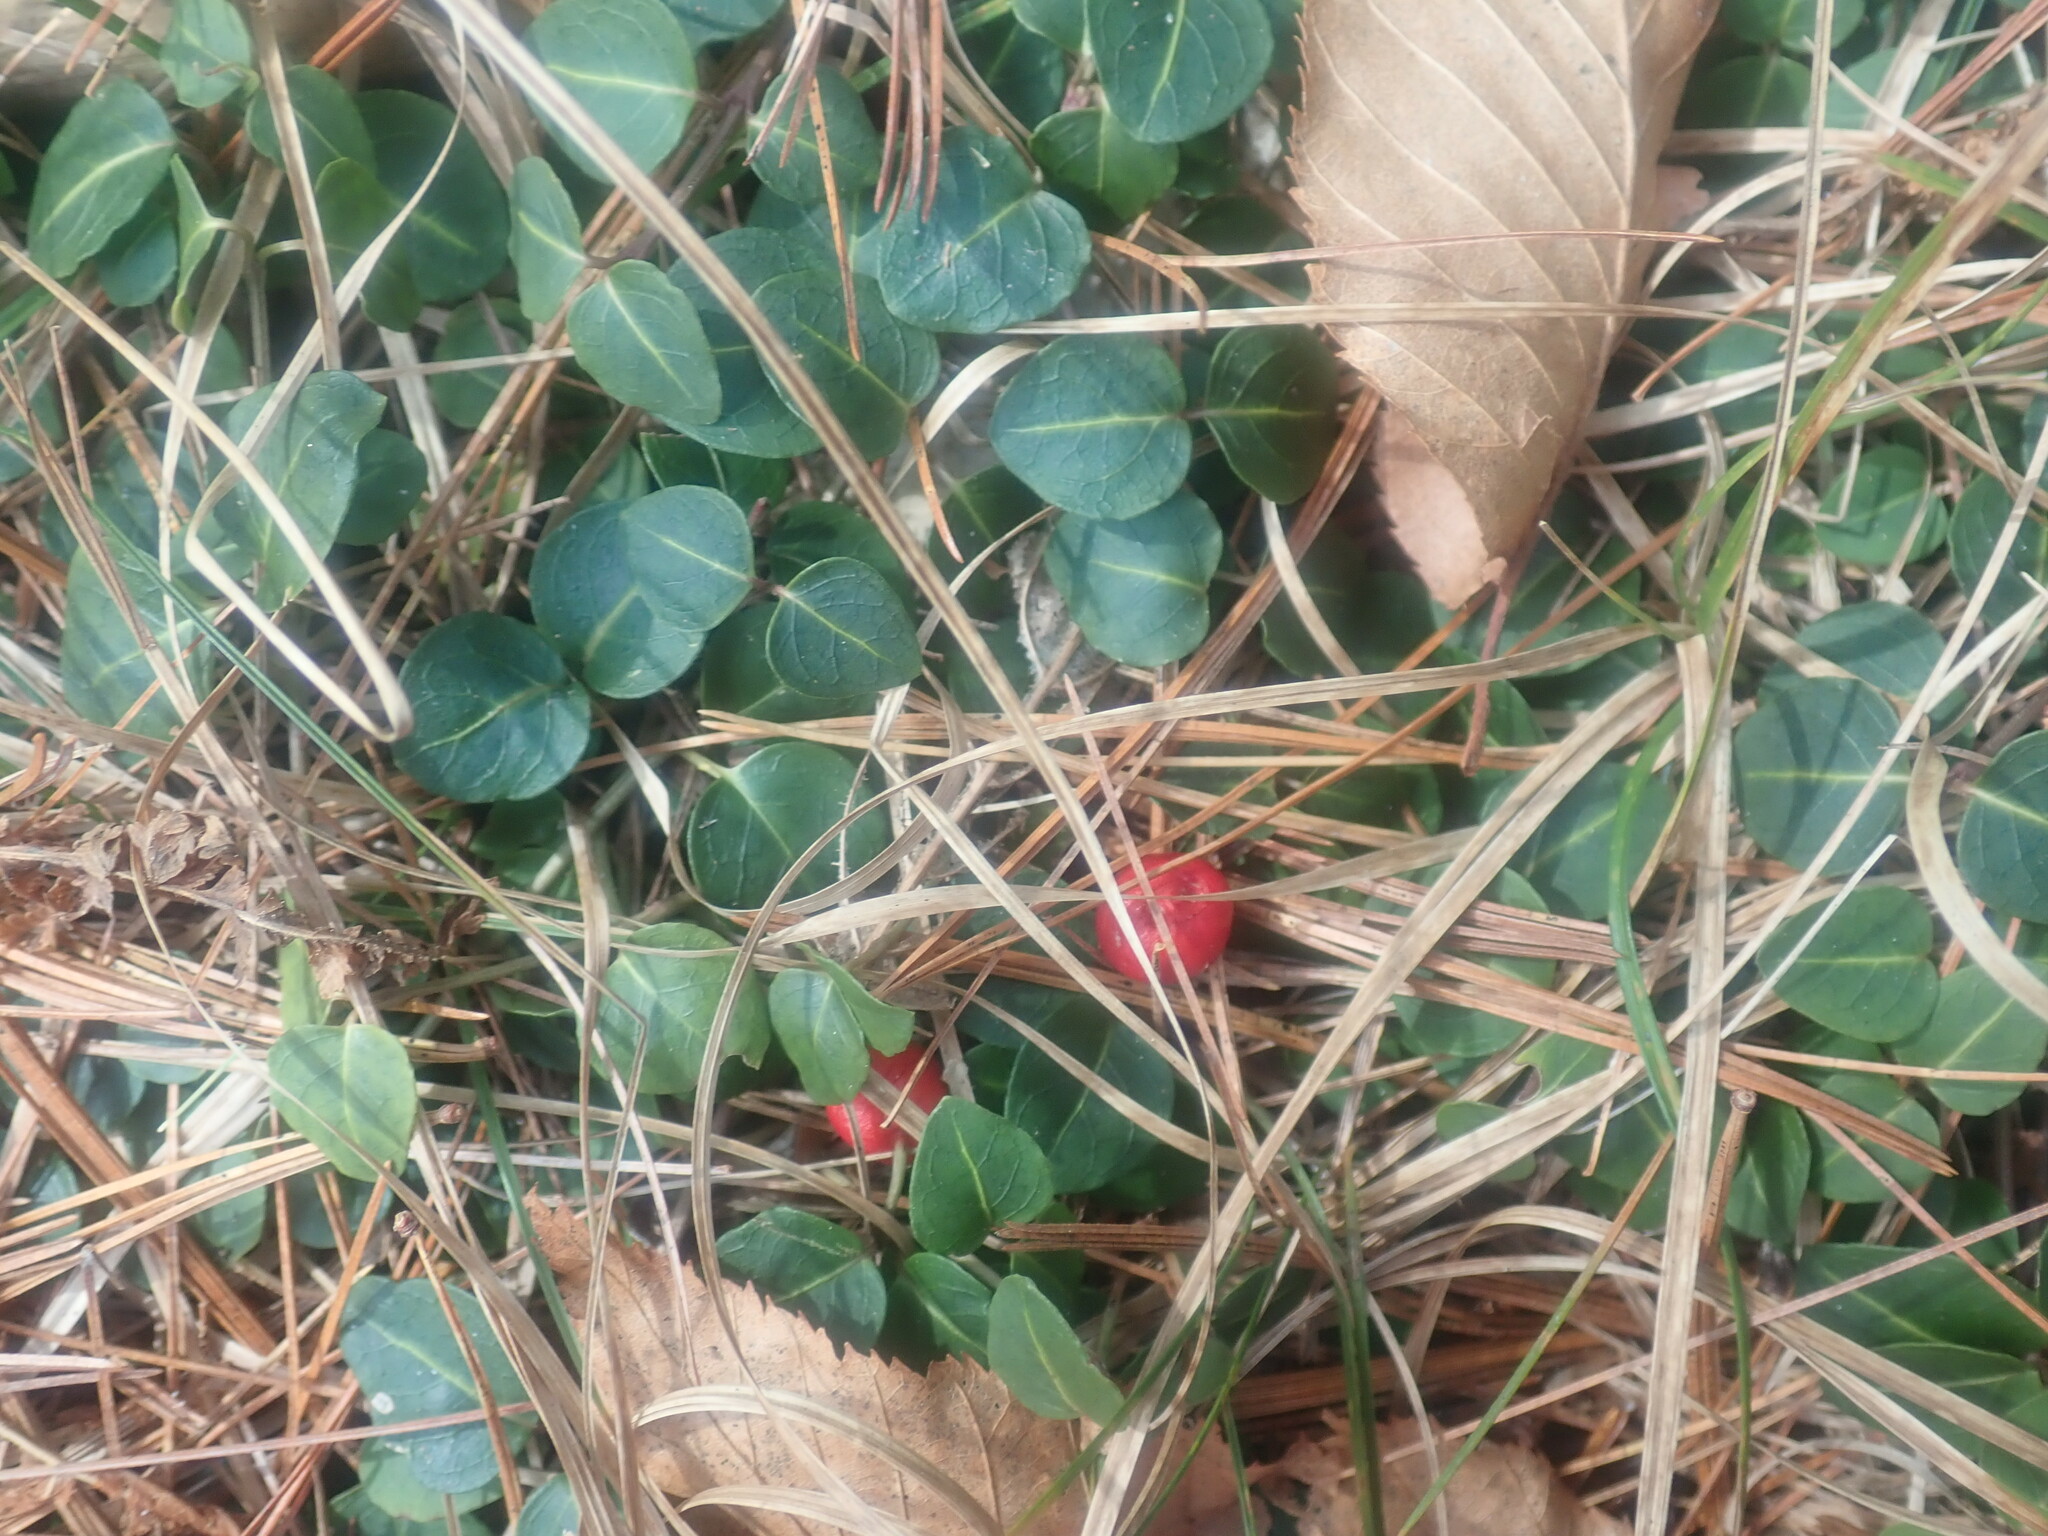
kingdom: Plantae
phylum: Tracheophyta
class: Magnoliopsida
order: Gentianales
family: Rubiaceae
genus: Mitchella
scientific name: Mitchella repens
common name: Partridge-berry
